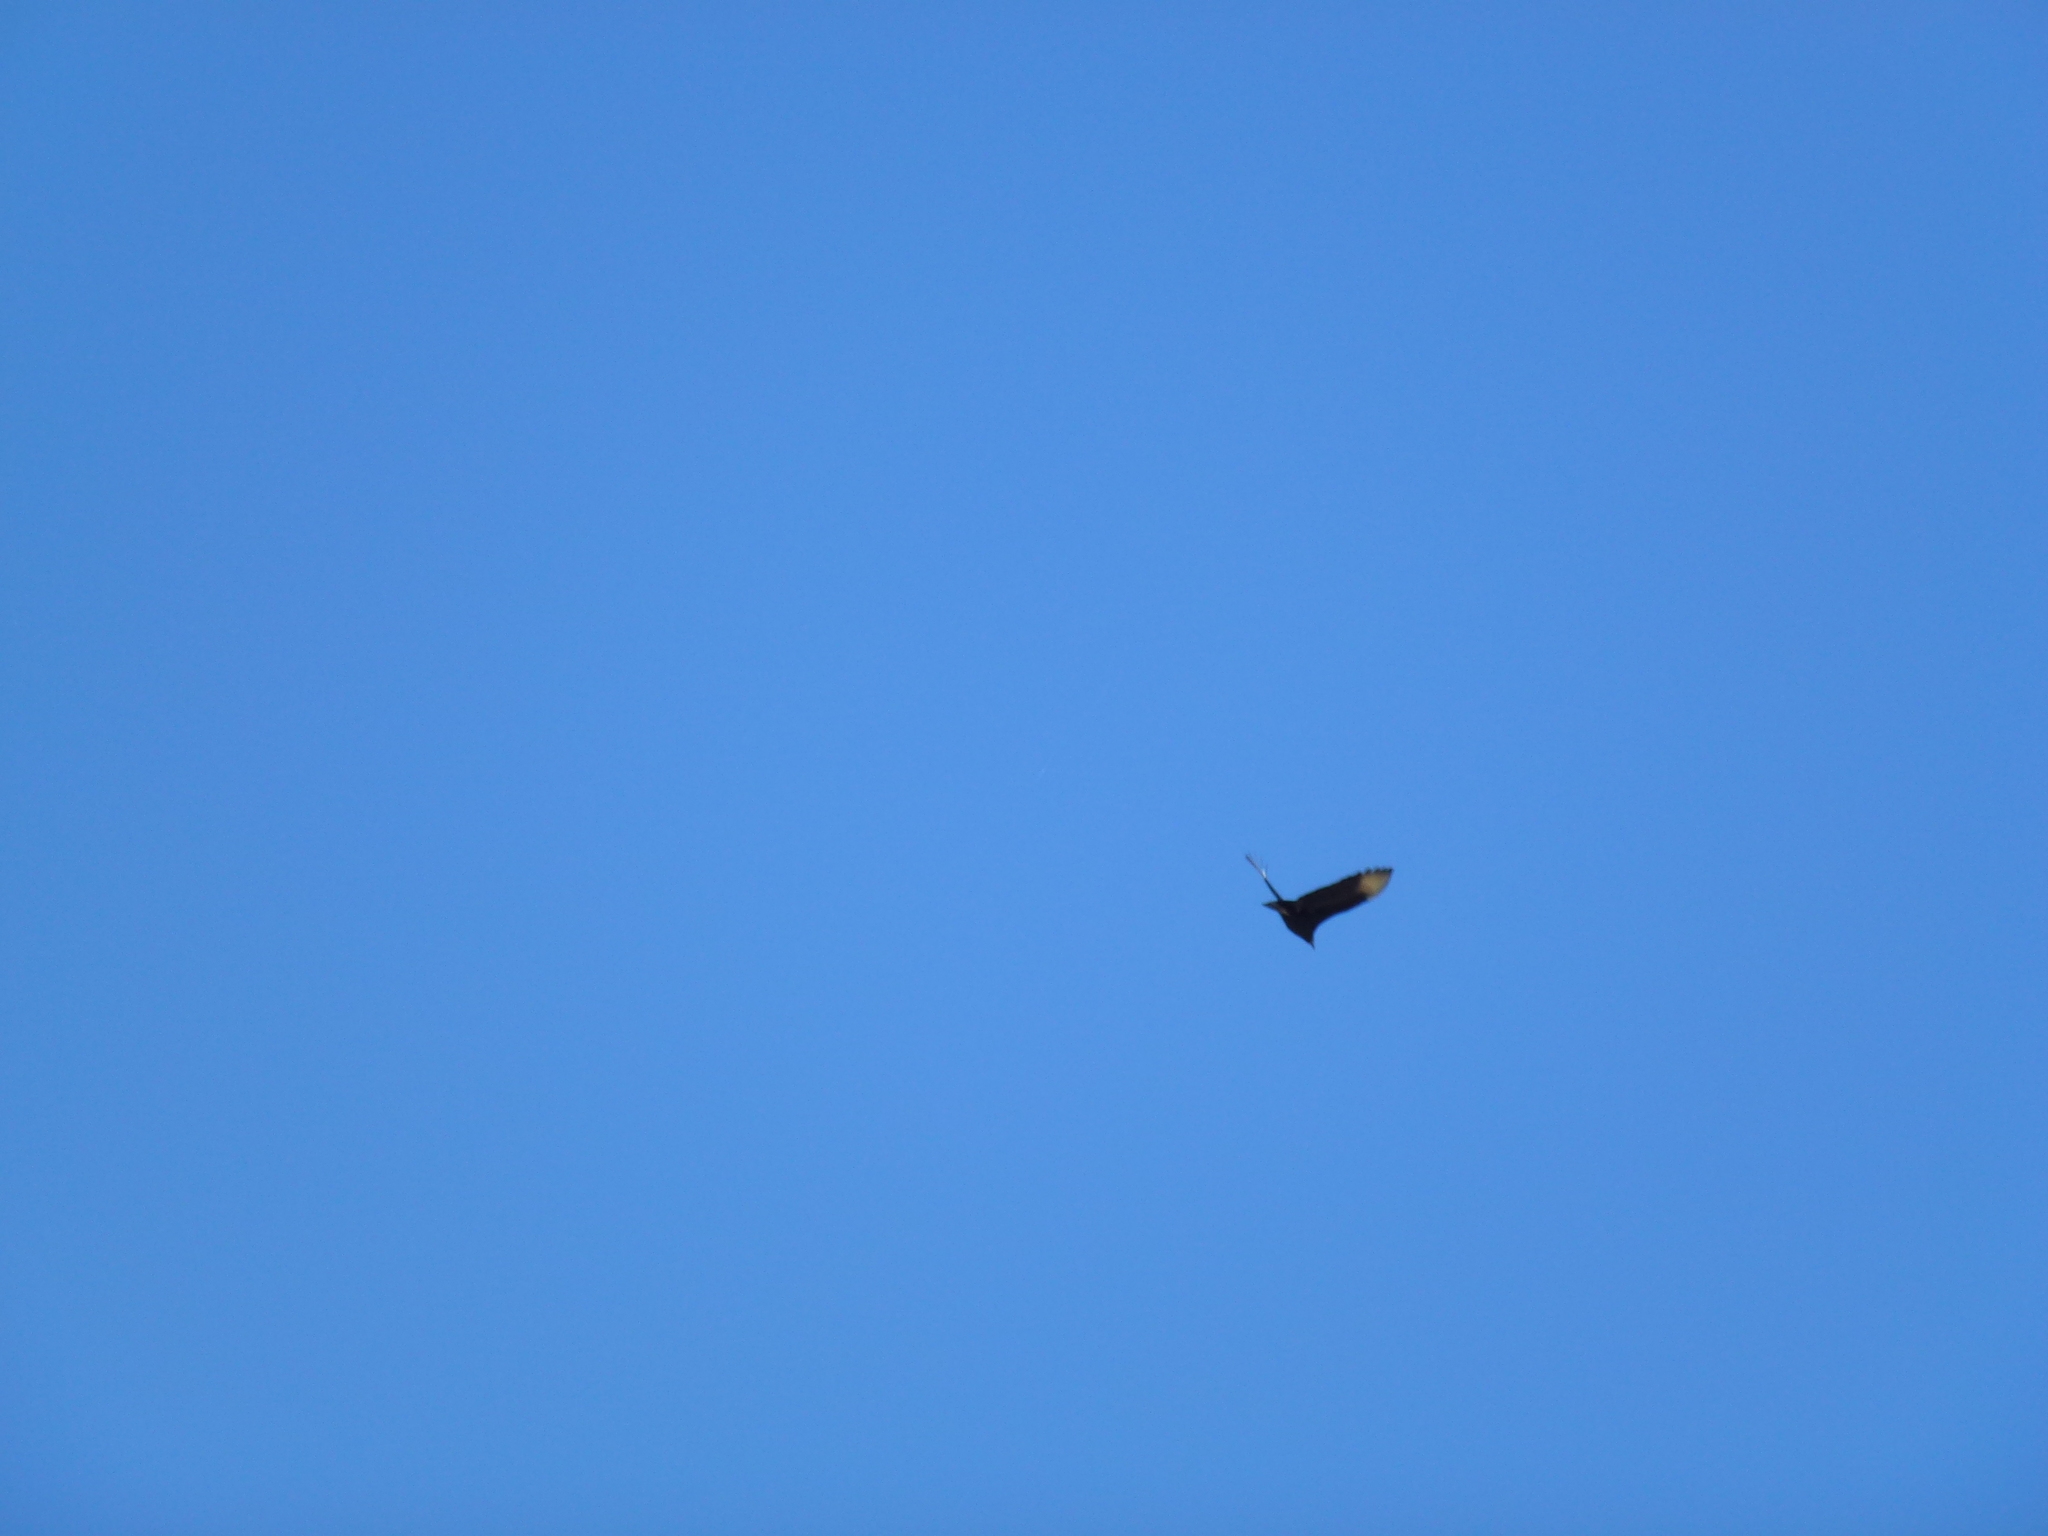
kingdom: Animalia
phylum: Chordata
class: Aves
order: Accipitriformes
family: Cathartidae
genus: Coragyps
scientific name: Coragyps atratus
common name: Black vulture
